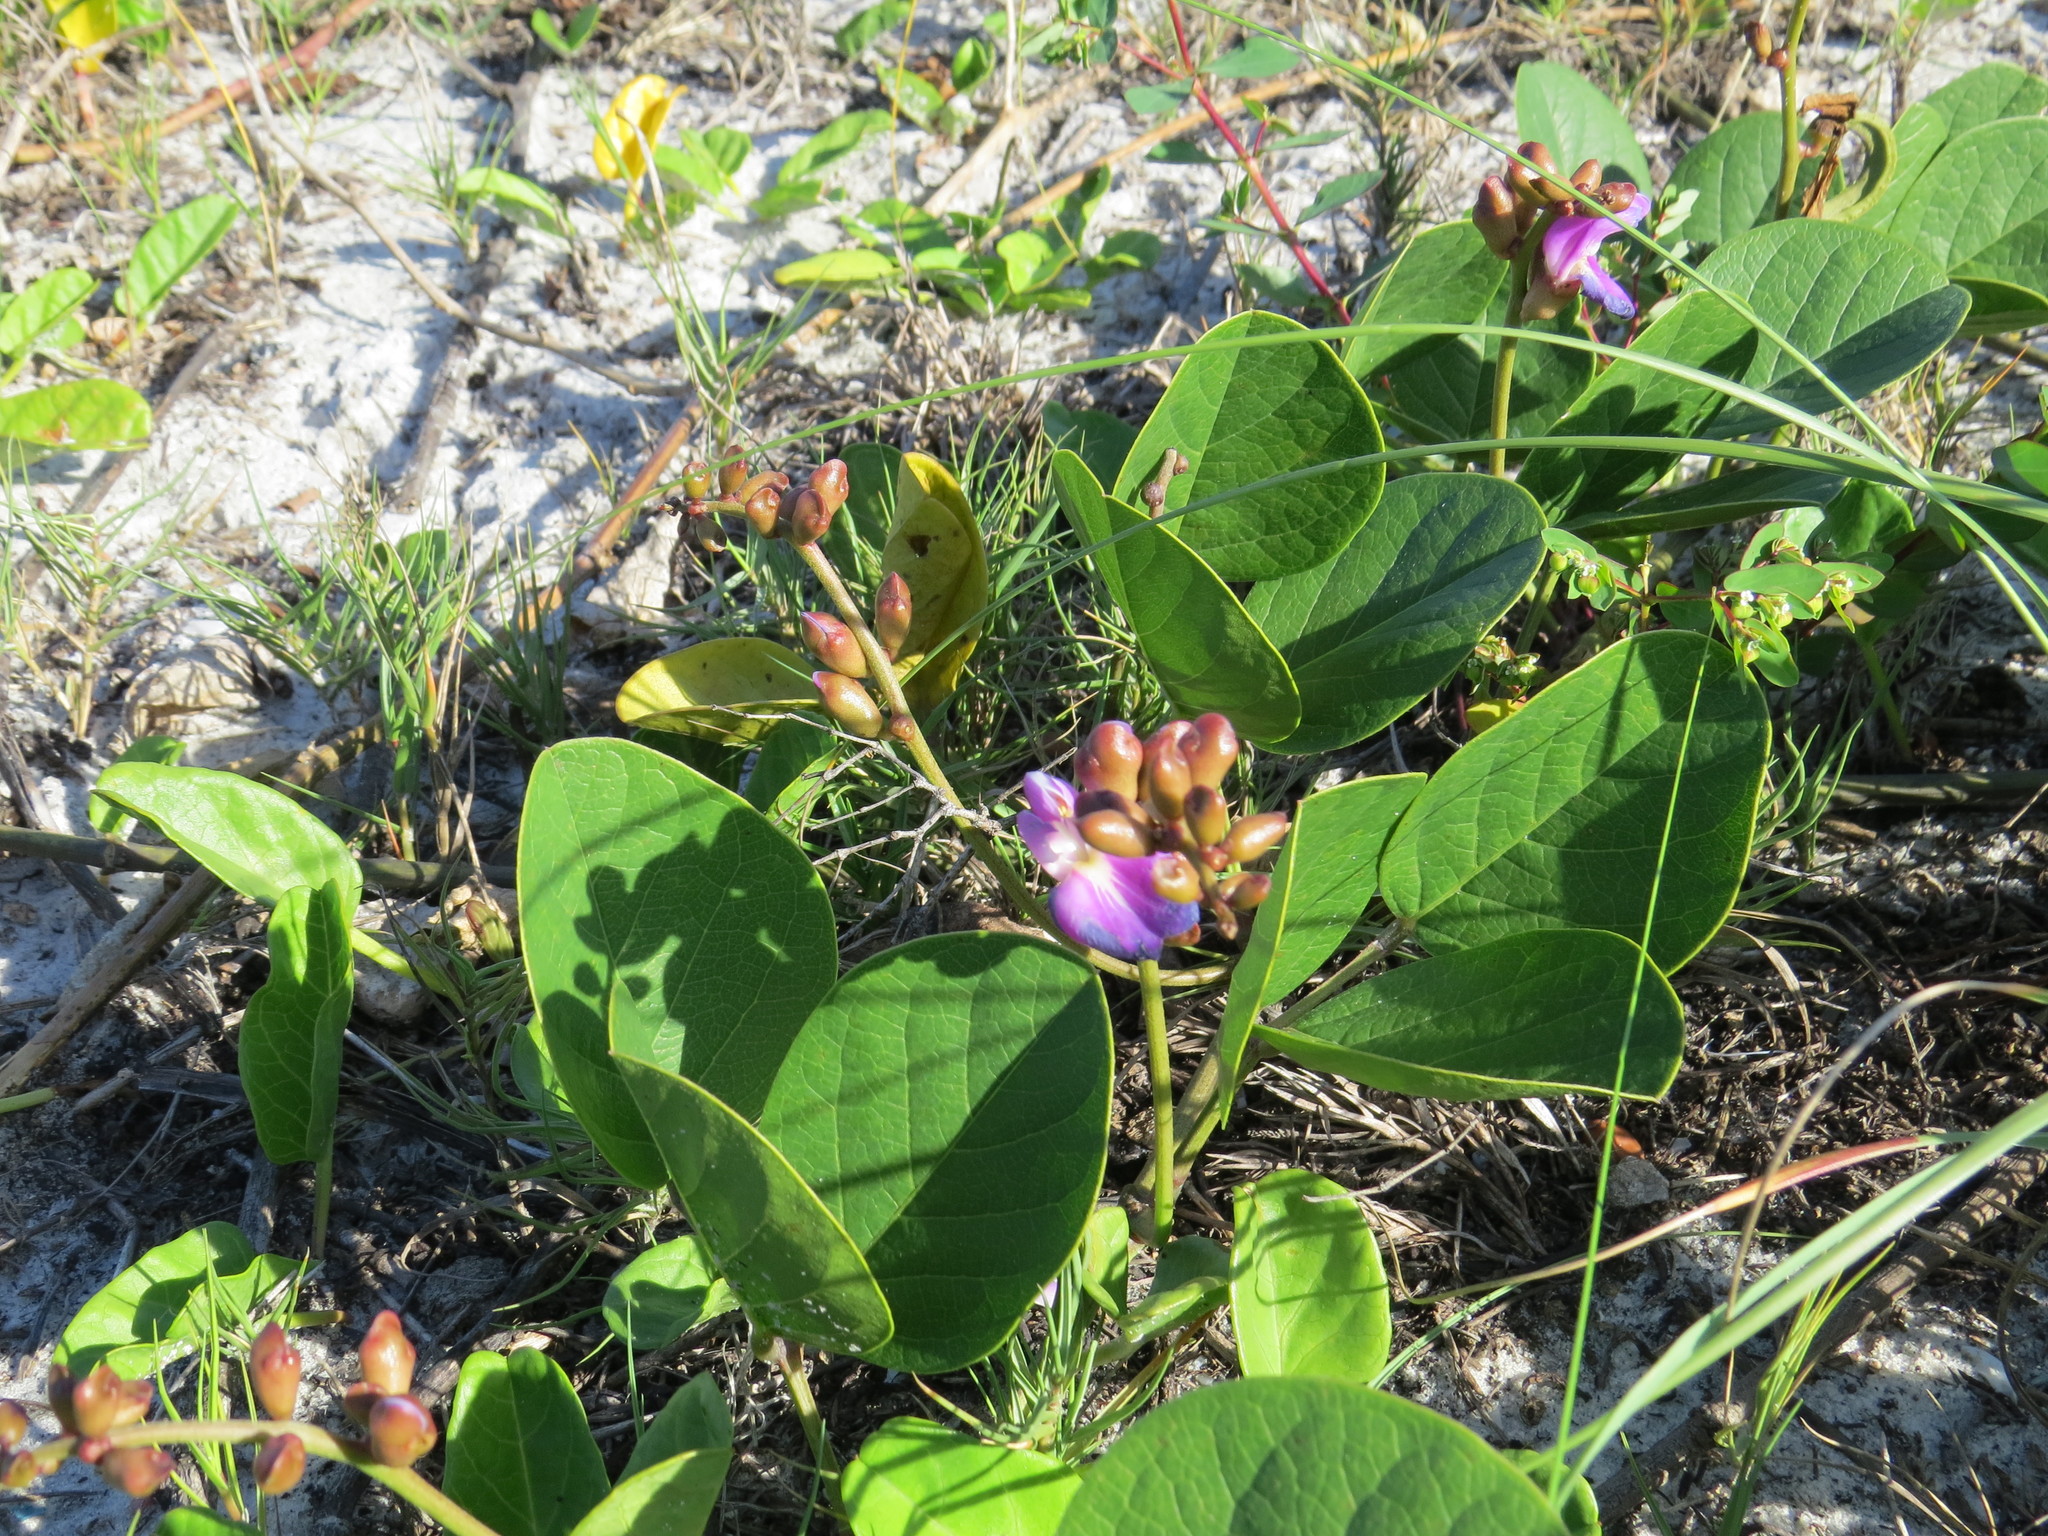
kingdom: Plantae
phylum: Tracheophyta
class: Magnoliopsida
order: Fabales
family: Fabaceae
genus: Canavalia
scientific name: Canavalia rosea
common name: Beach-bean
